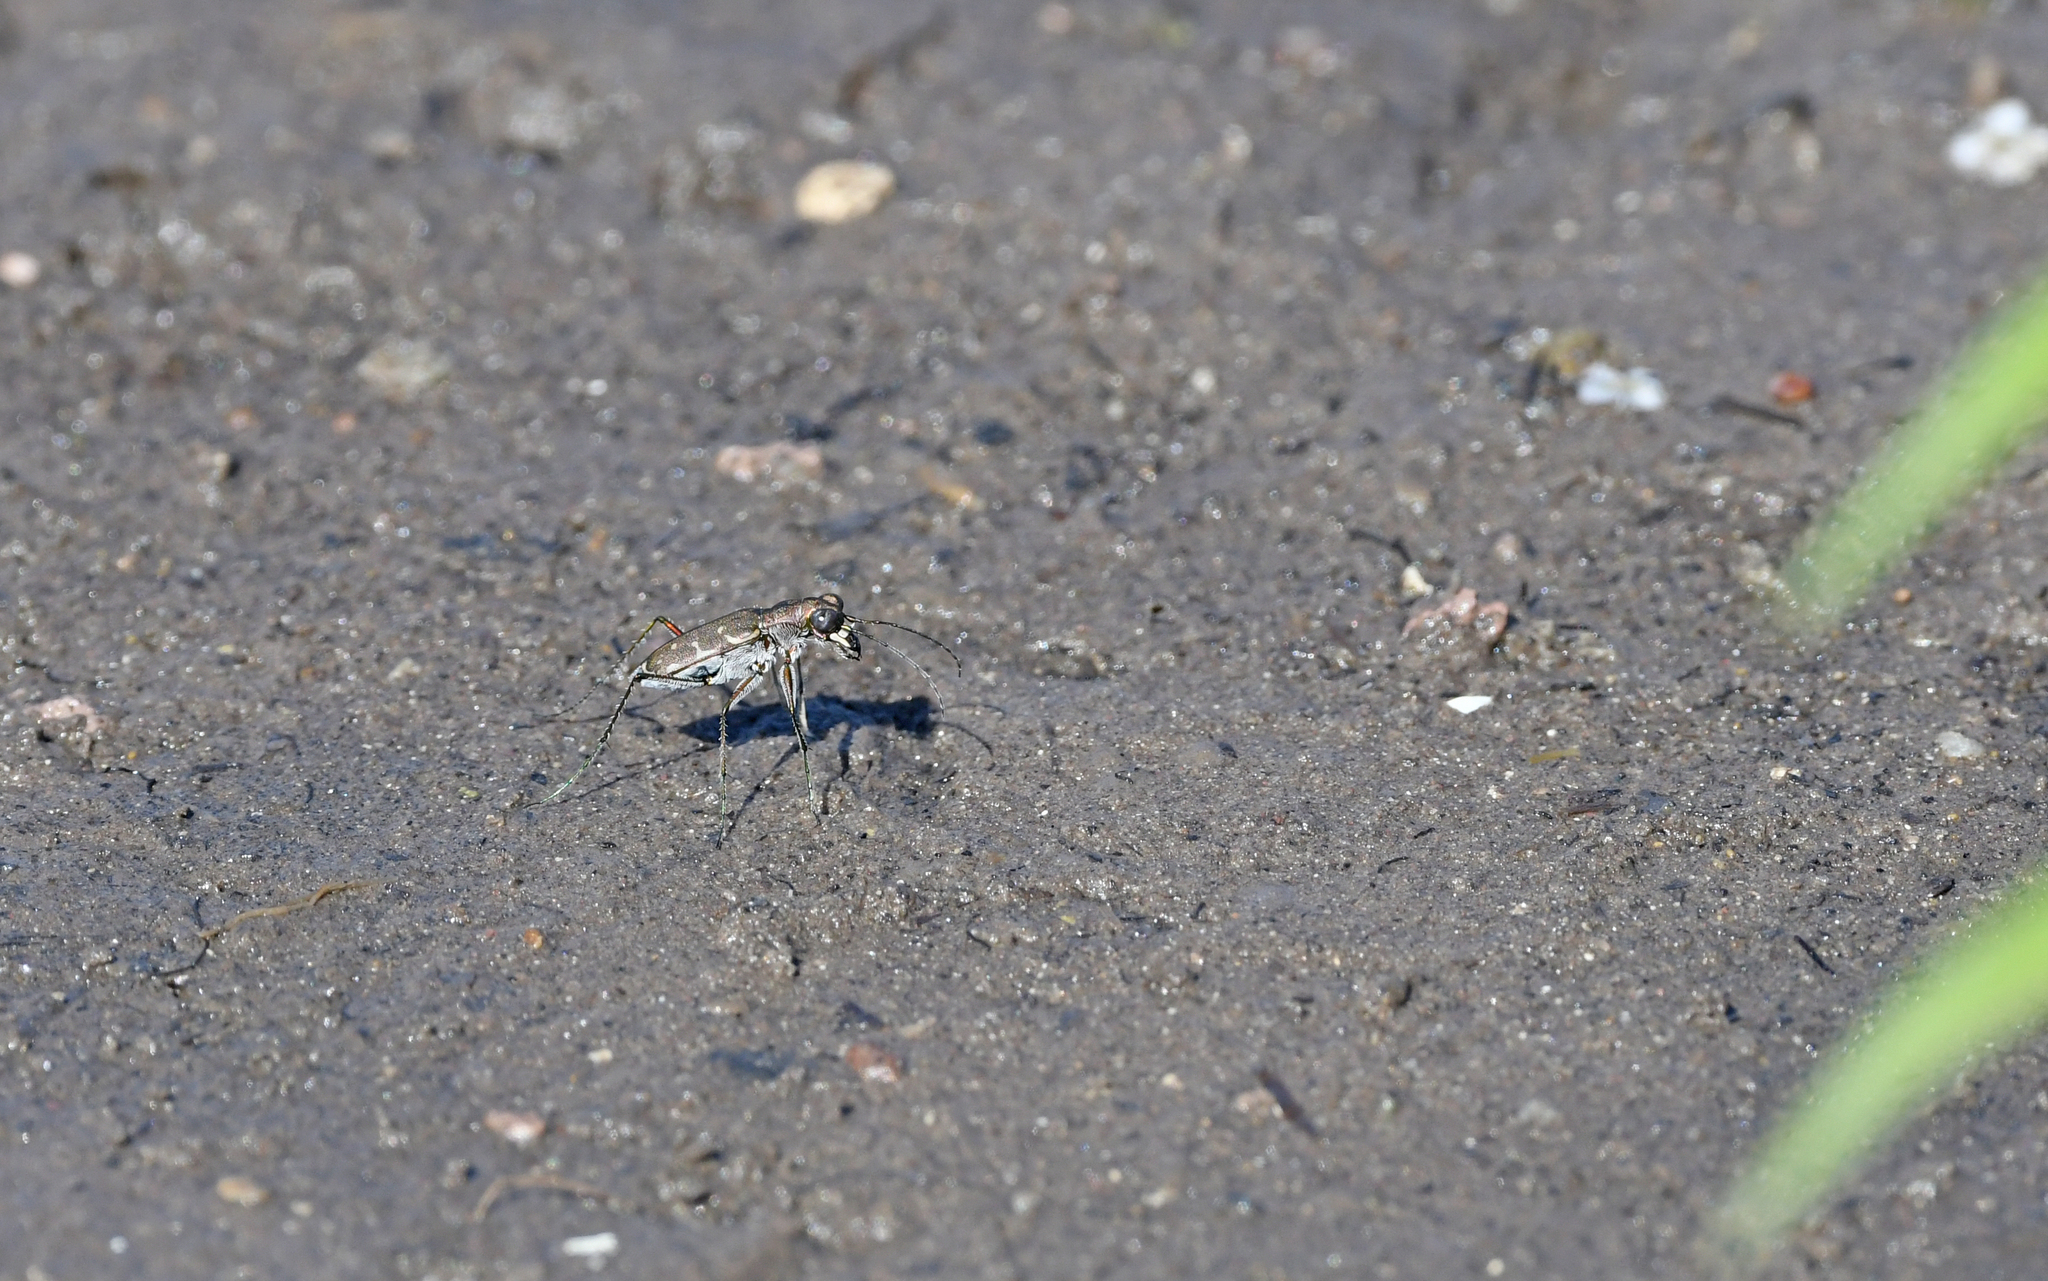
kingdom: Animalia
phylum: Arthropoda
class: Insecta
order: Coleoptera
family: Carabidae
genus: Myriochila
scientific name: Myriochila melancholica
